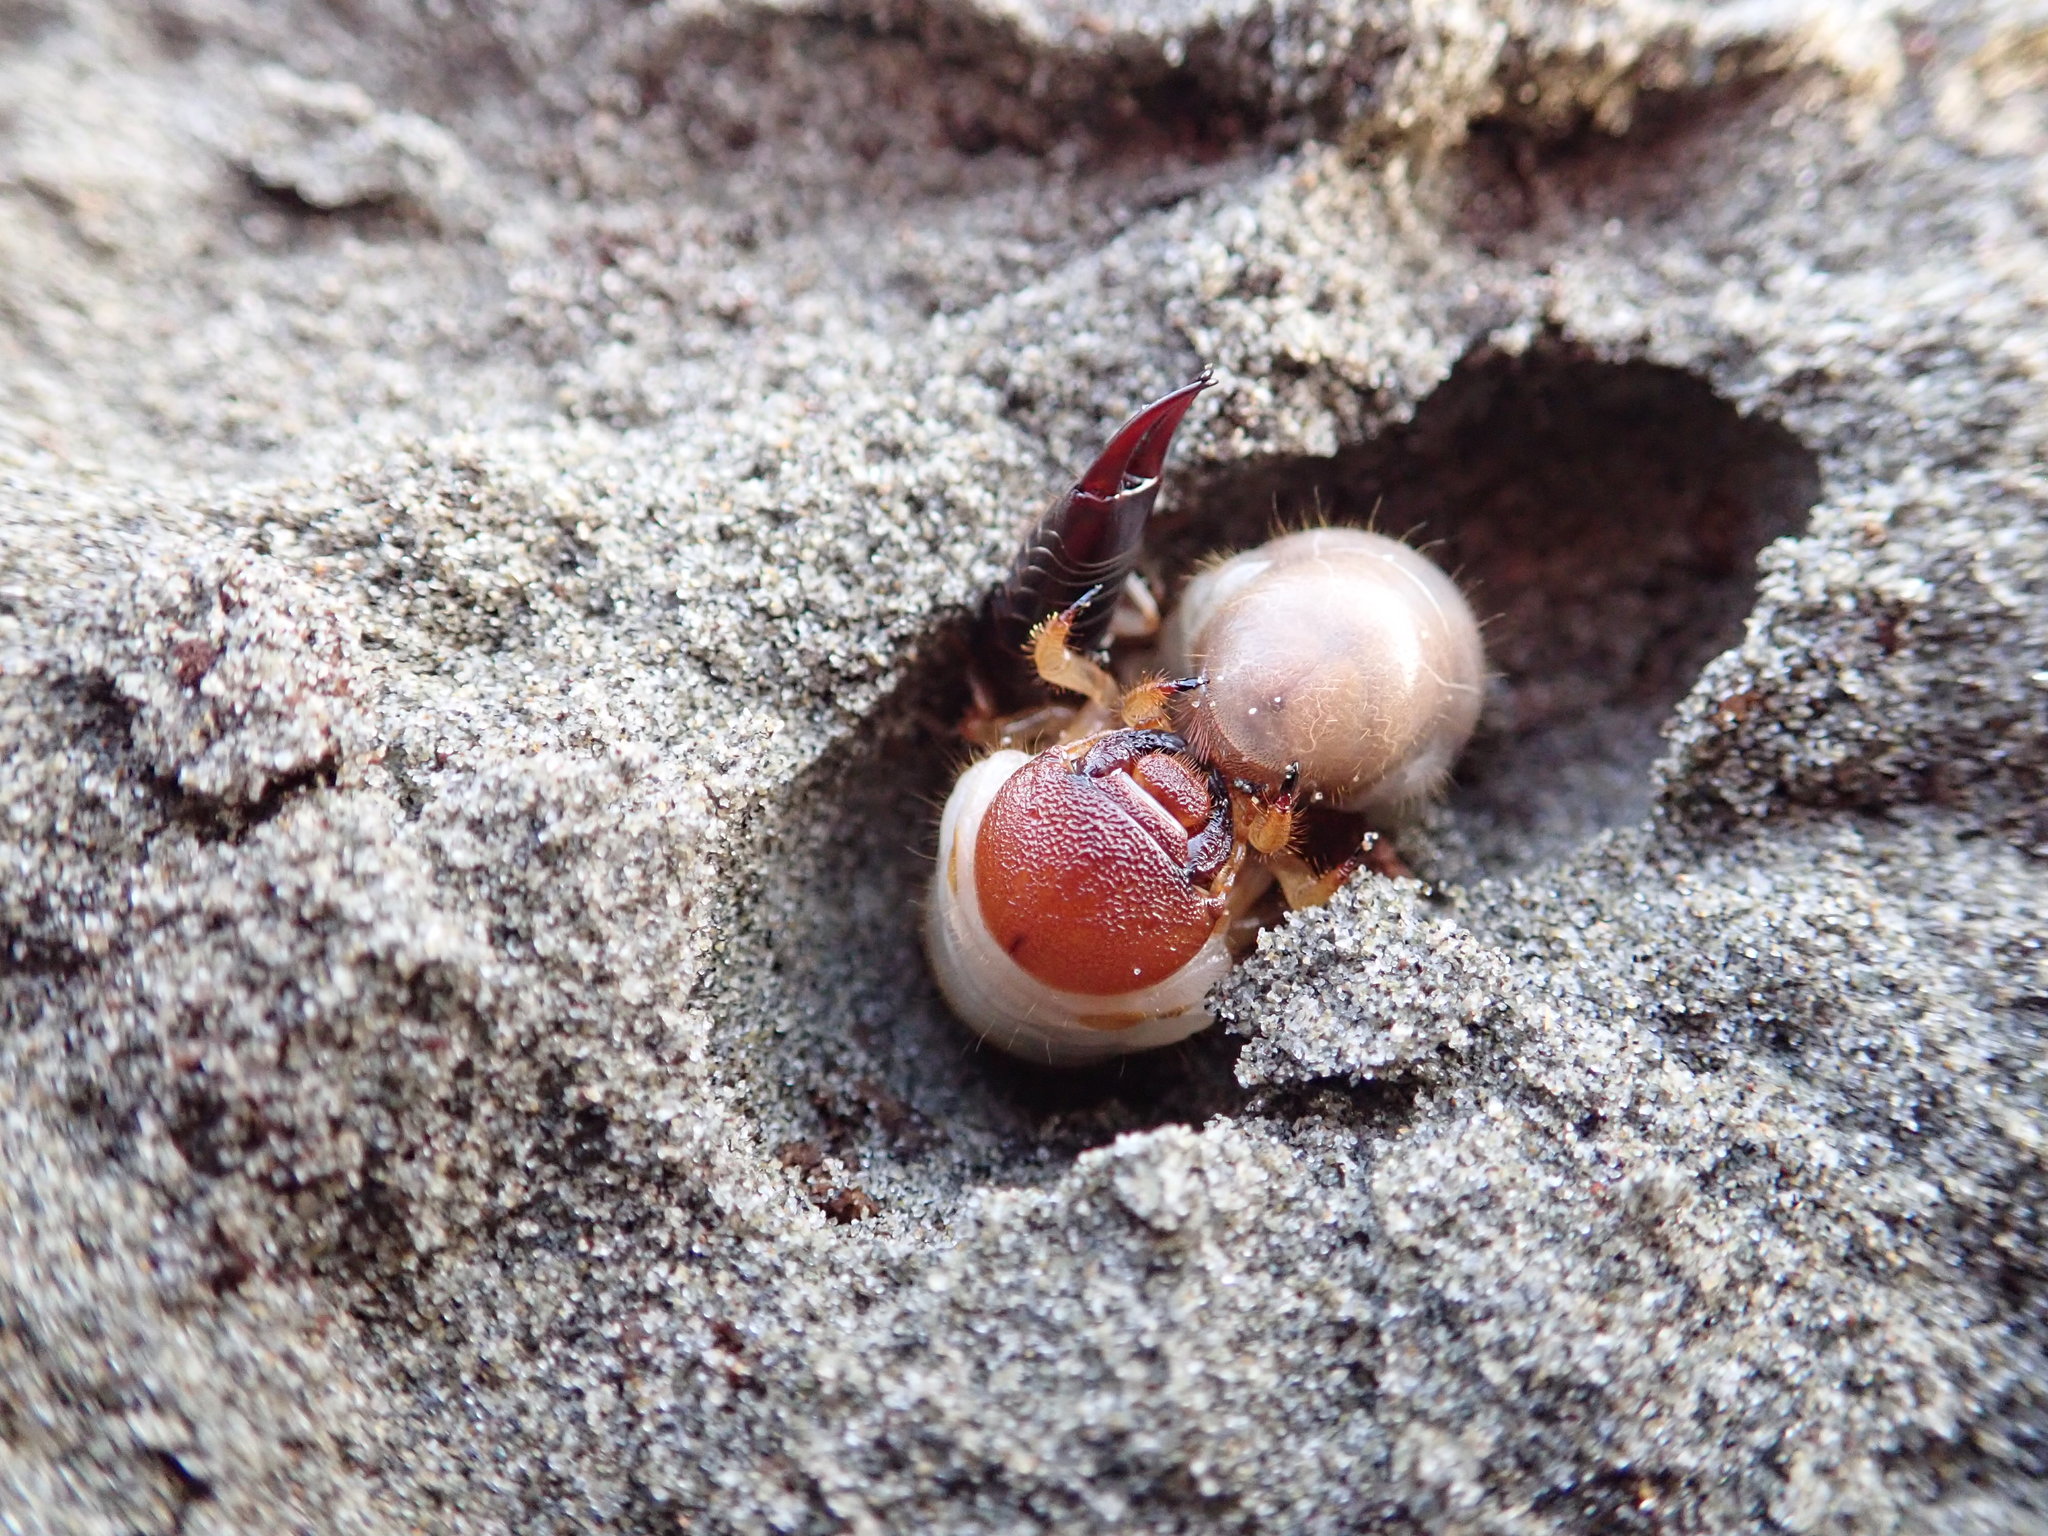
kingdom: Animalia
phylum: Arthropoda
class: Insecta
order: Coleoptera
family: Scarabaeidae
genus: Pericoptus
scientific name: Pericoptus truncatus
